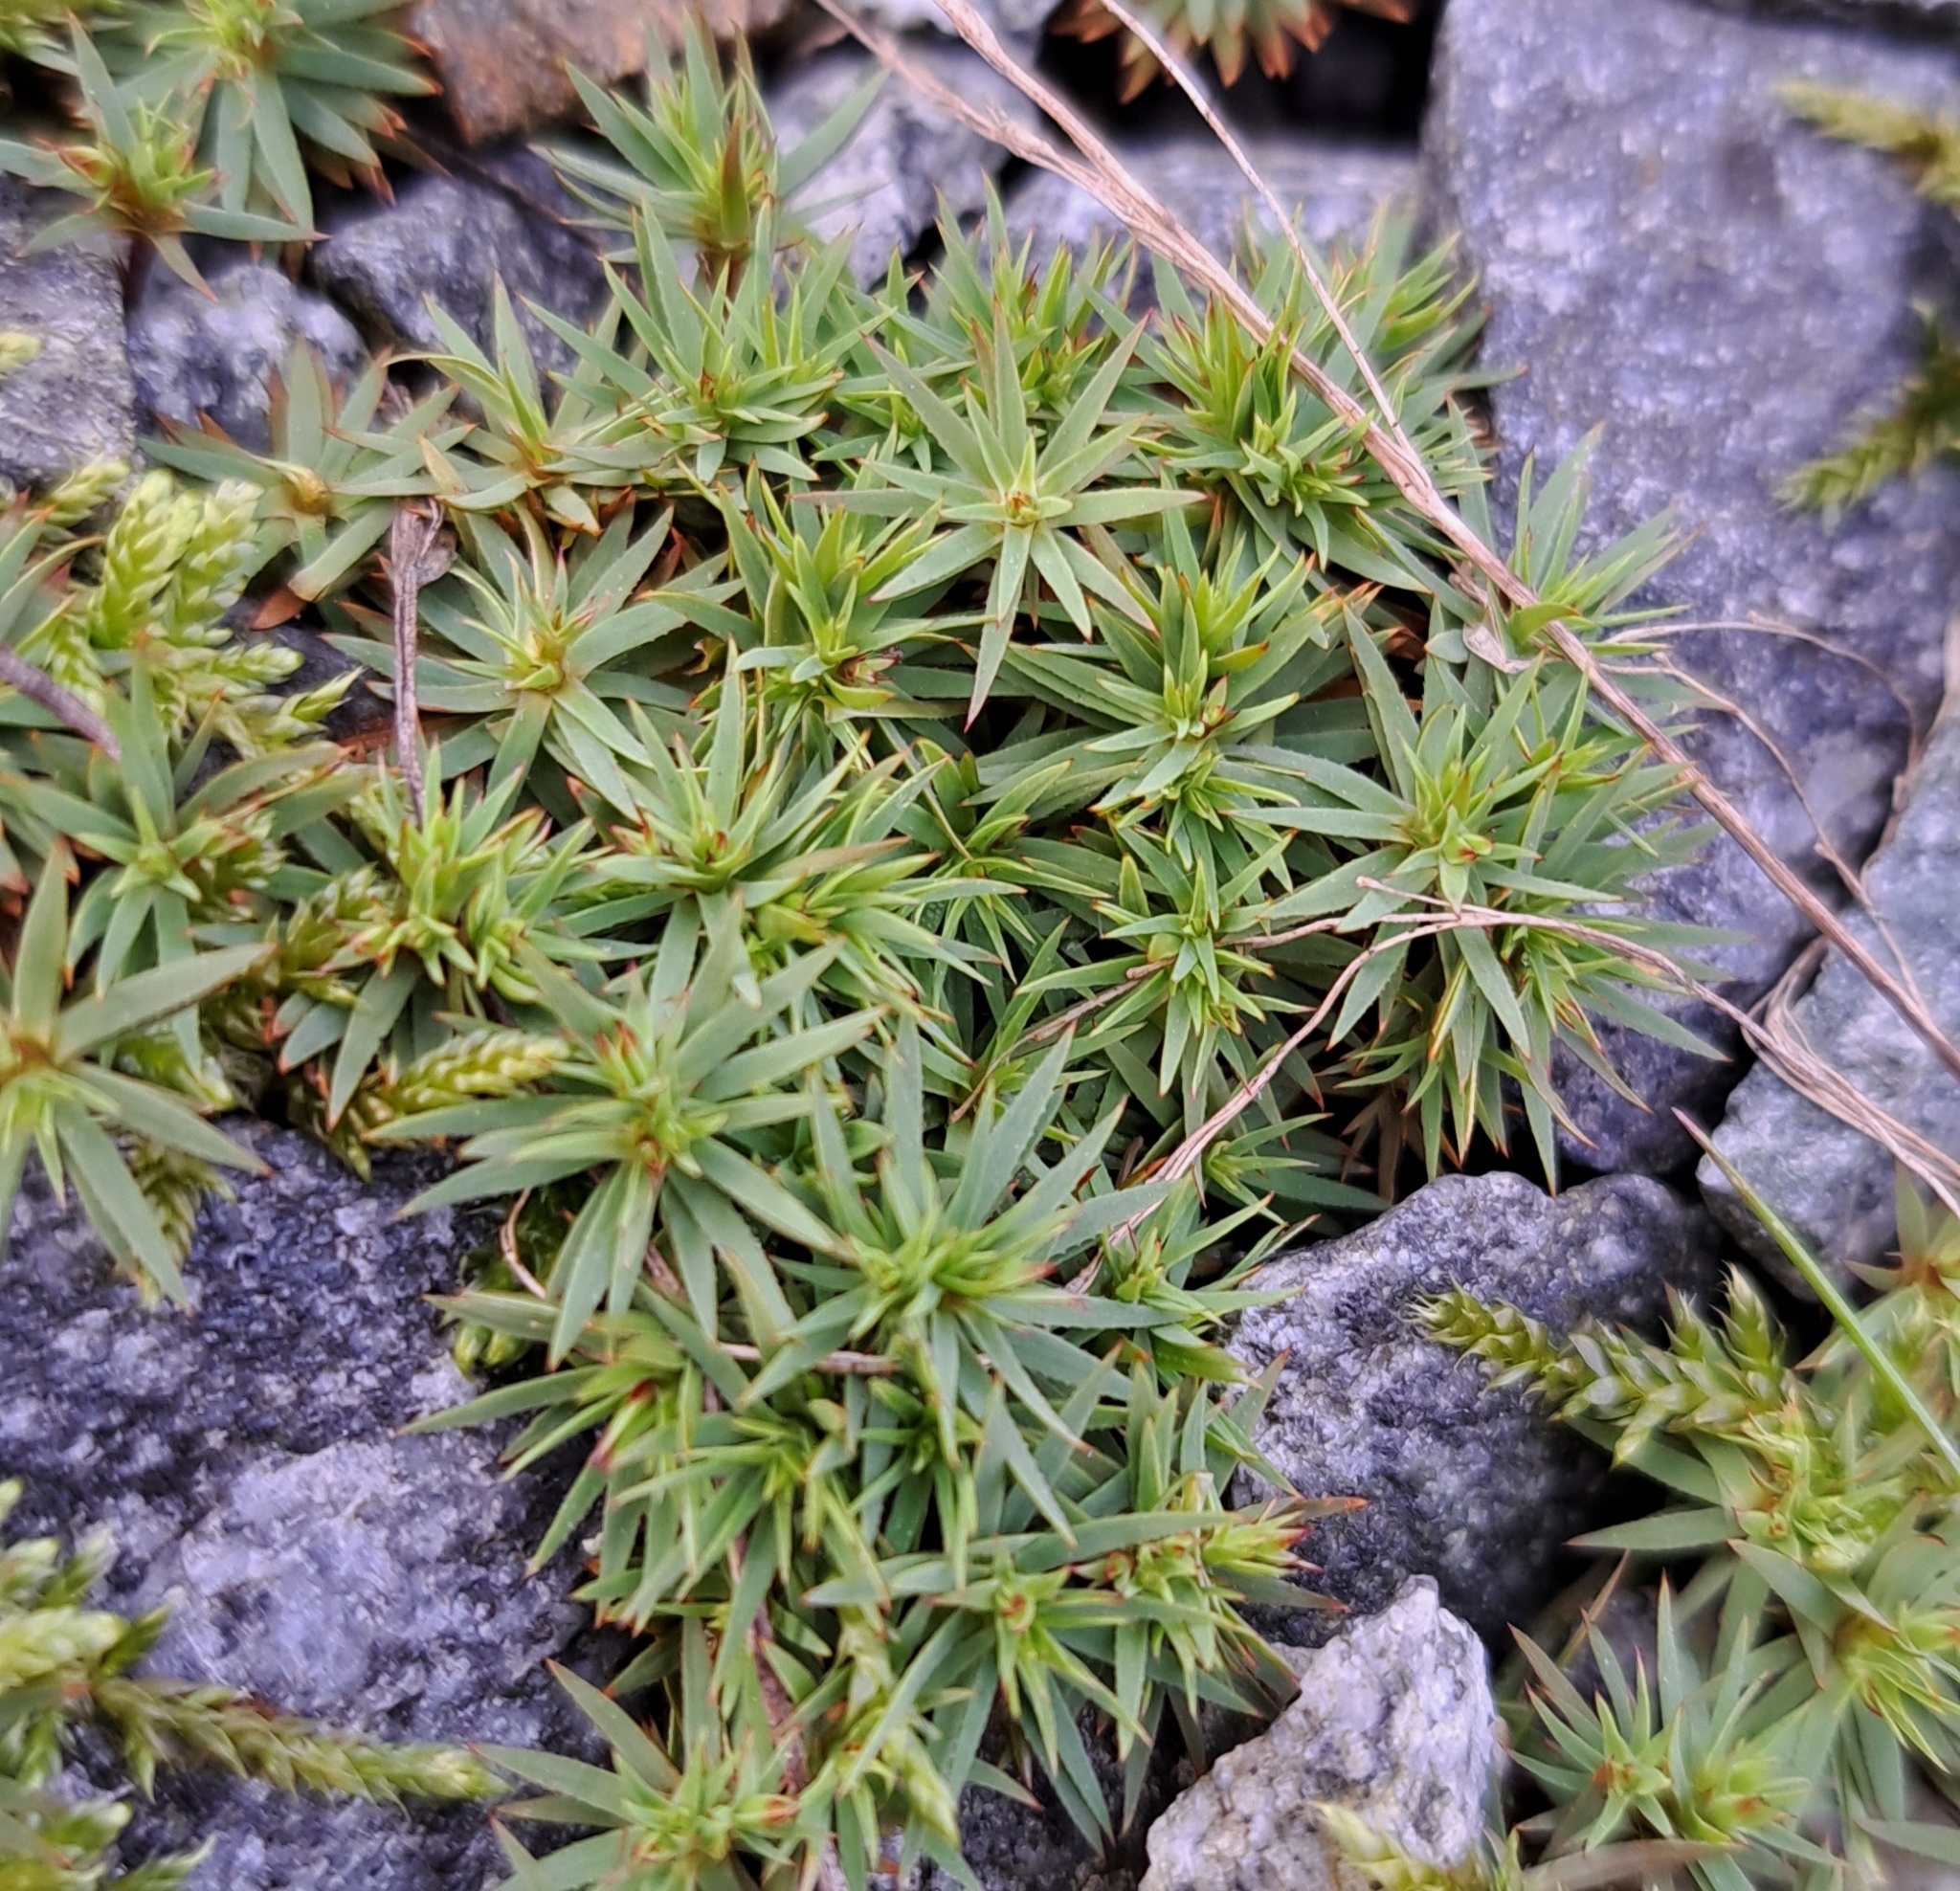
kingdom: Plantae
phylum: Bryophyta
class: Polytrichopsida
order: Polytrichales
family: Polytrichaceae
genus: Pogonatum
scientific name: Pogonatum urnigerum
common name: Urn hair moss
